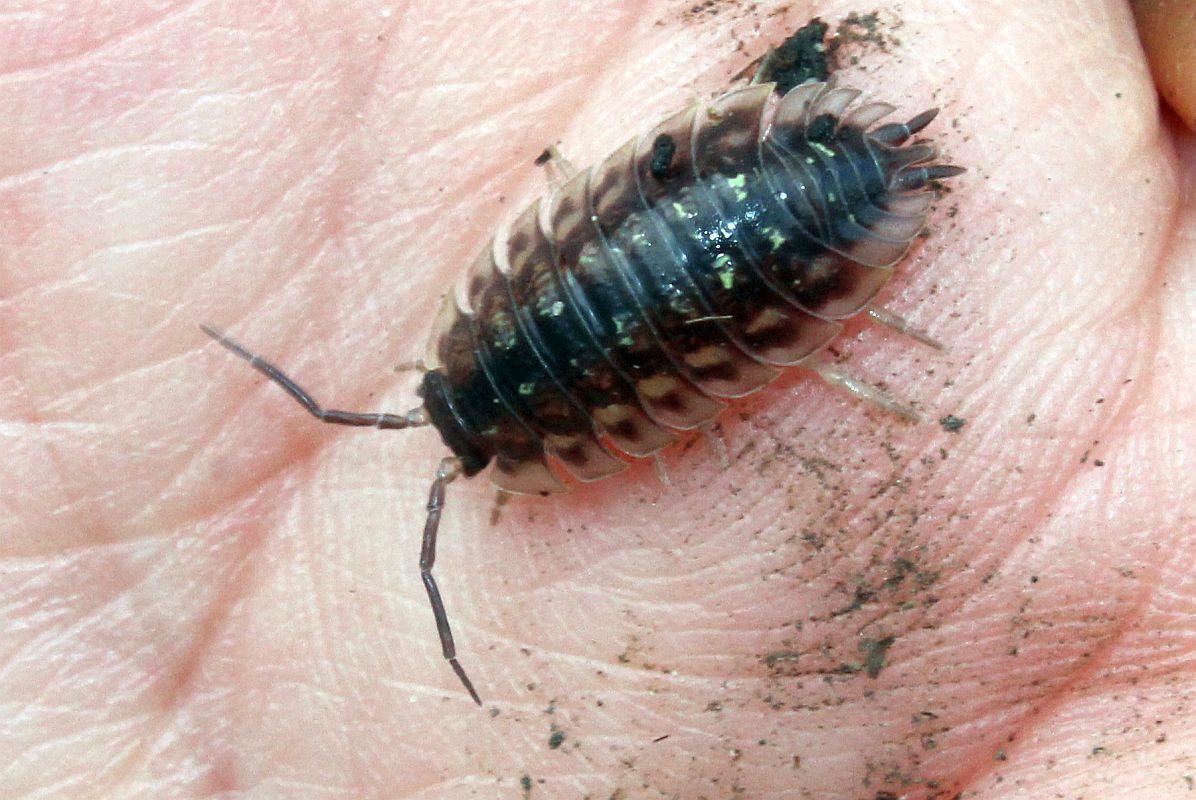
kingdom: Animalia
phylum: Arthropoda
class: Malacostraca
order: Isopoda
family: Oniscidae
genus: Oniscus
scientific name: Oniscus asellus
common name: Common shiny woodlouse
